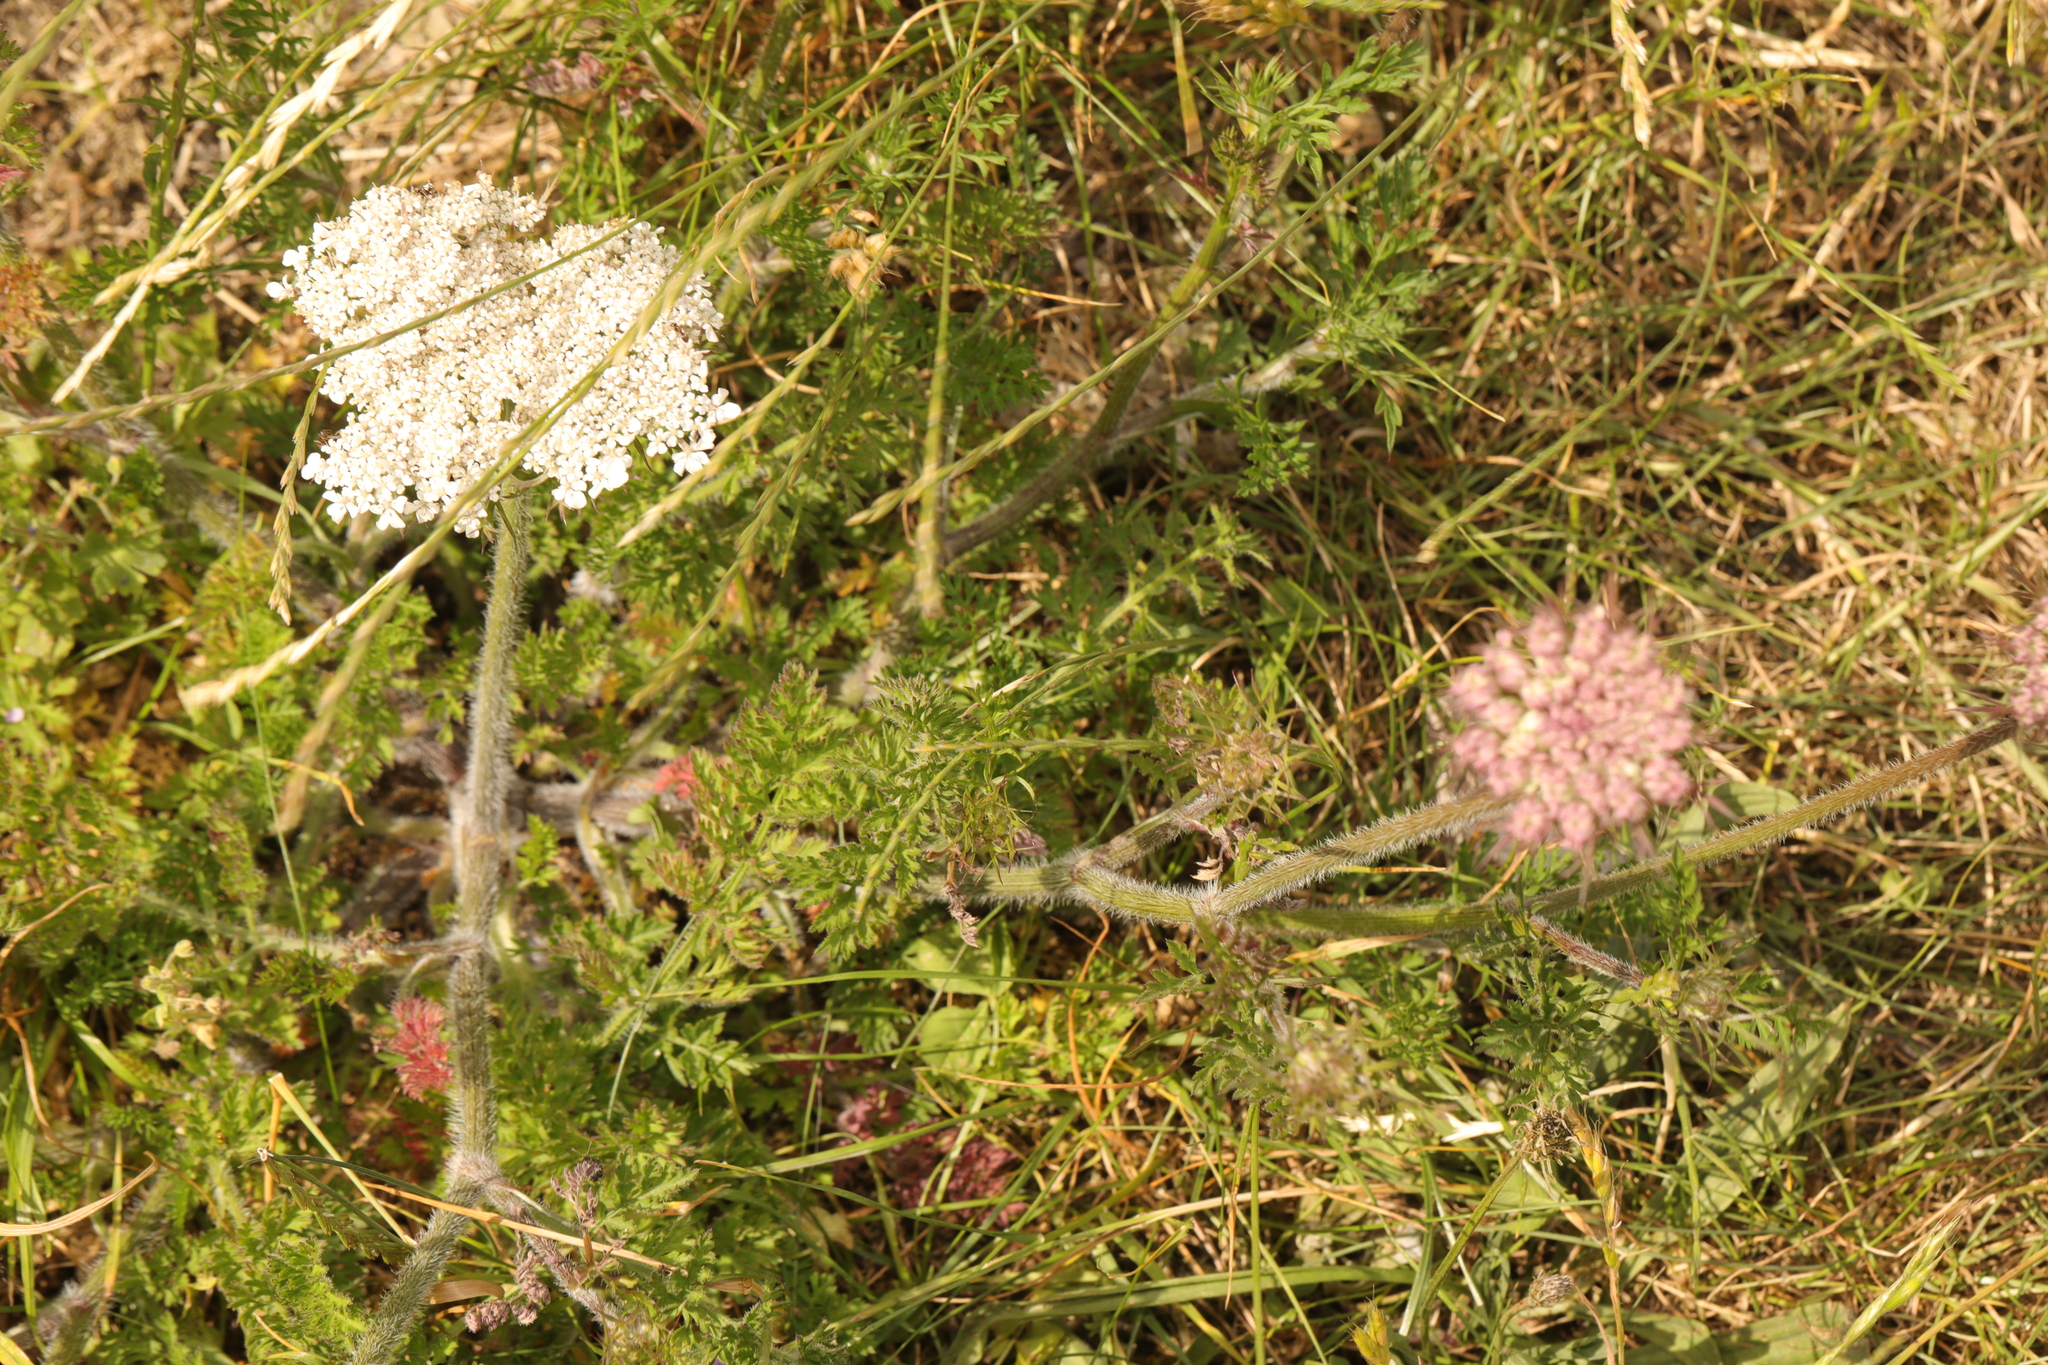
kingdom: Plantae
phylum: Tracheophyta
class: Magnoliopsida
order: Apiales
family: Apiaceae
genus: Daucus
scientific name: Daucus carota
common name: Wild carrot
